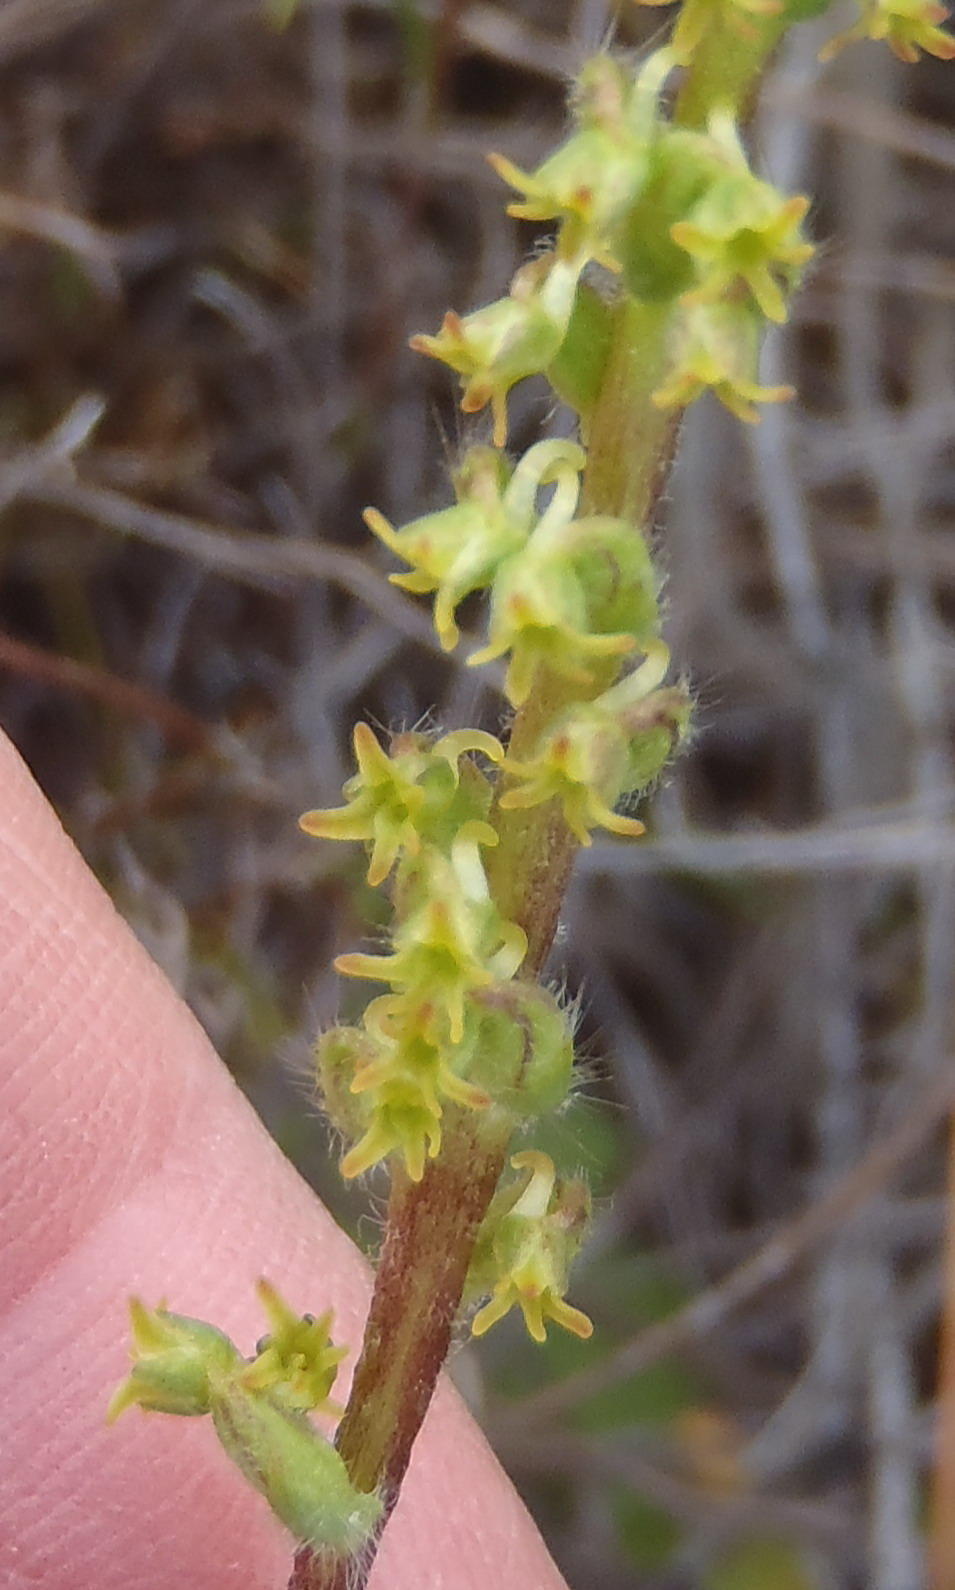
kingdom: Plantae
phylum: Tracheophyta
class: Liliopsida
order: Asparagales
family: Orchidaceae
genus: Holothrix
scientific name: Holothrix villosa
